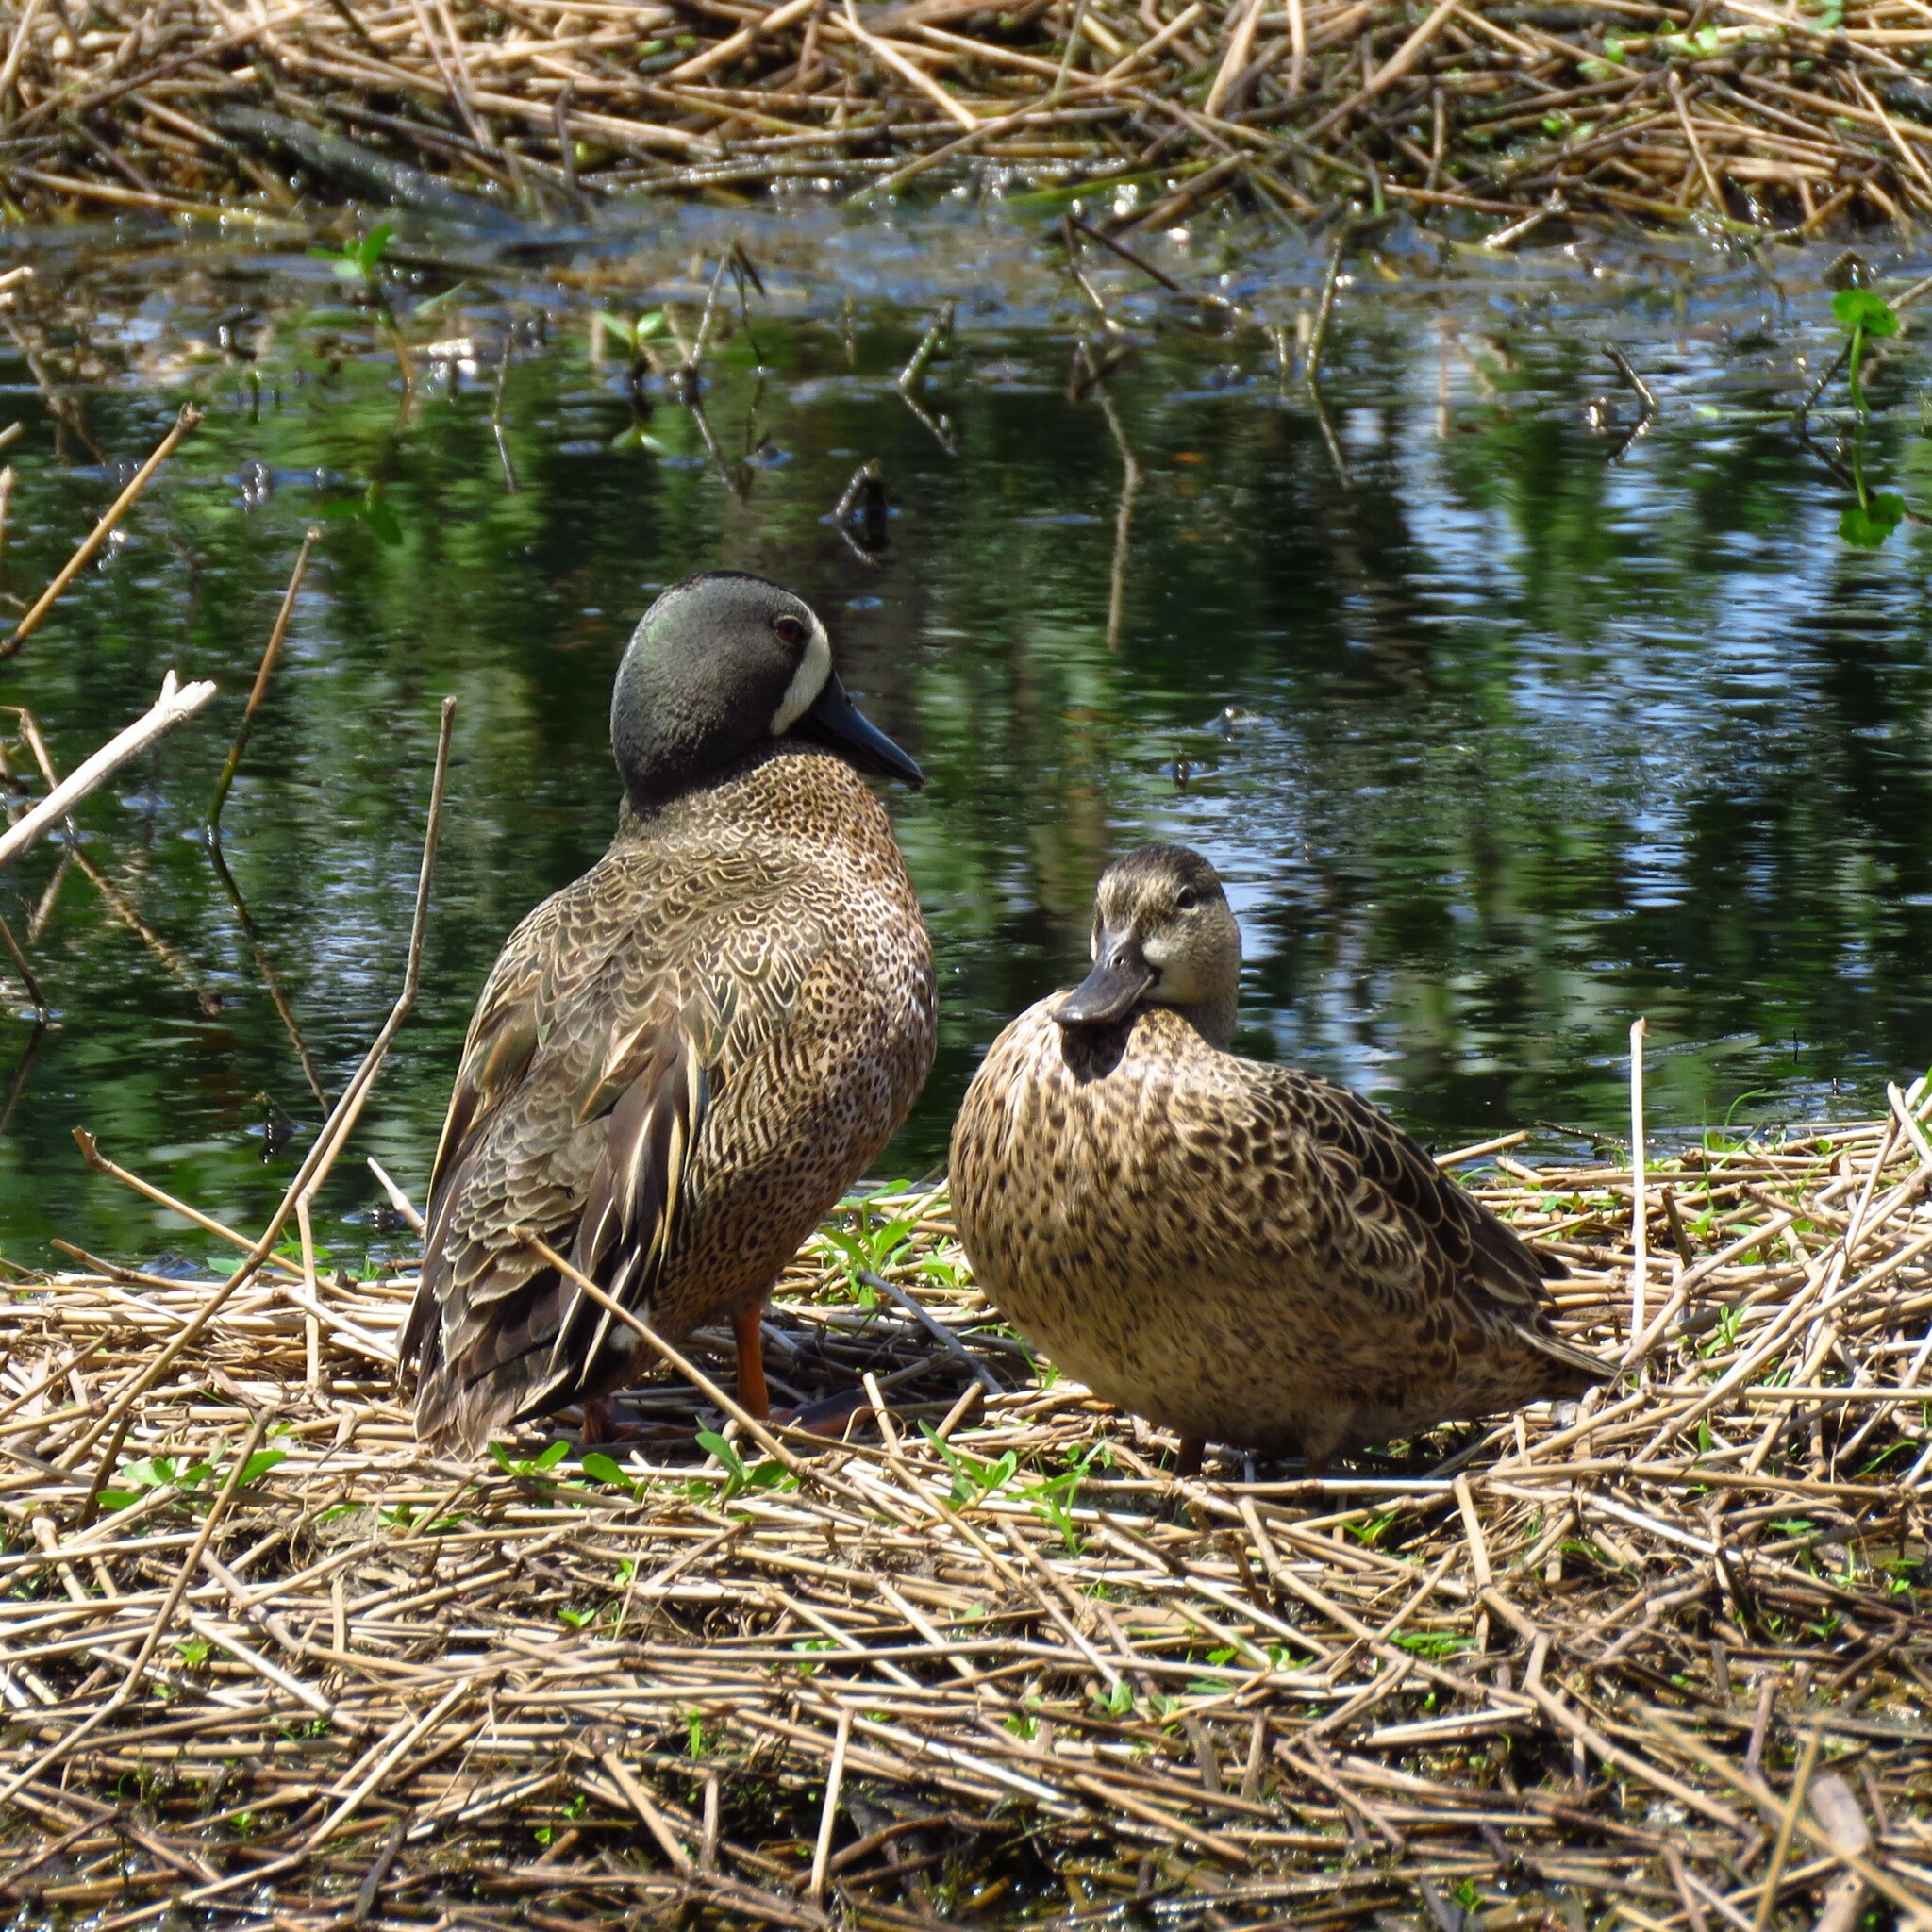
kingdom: Animalia
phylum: Chordata
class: Aves
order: Anseriformes
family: Anatidae
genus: Spatula
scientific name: Spatula discors
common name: Blue-winged teal
